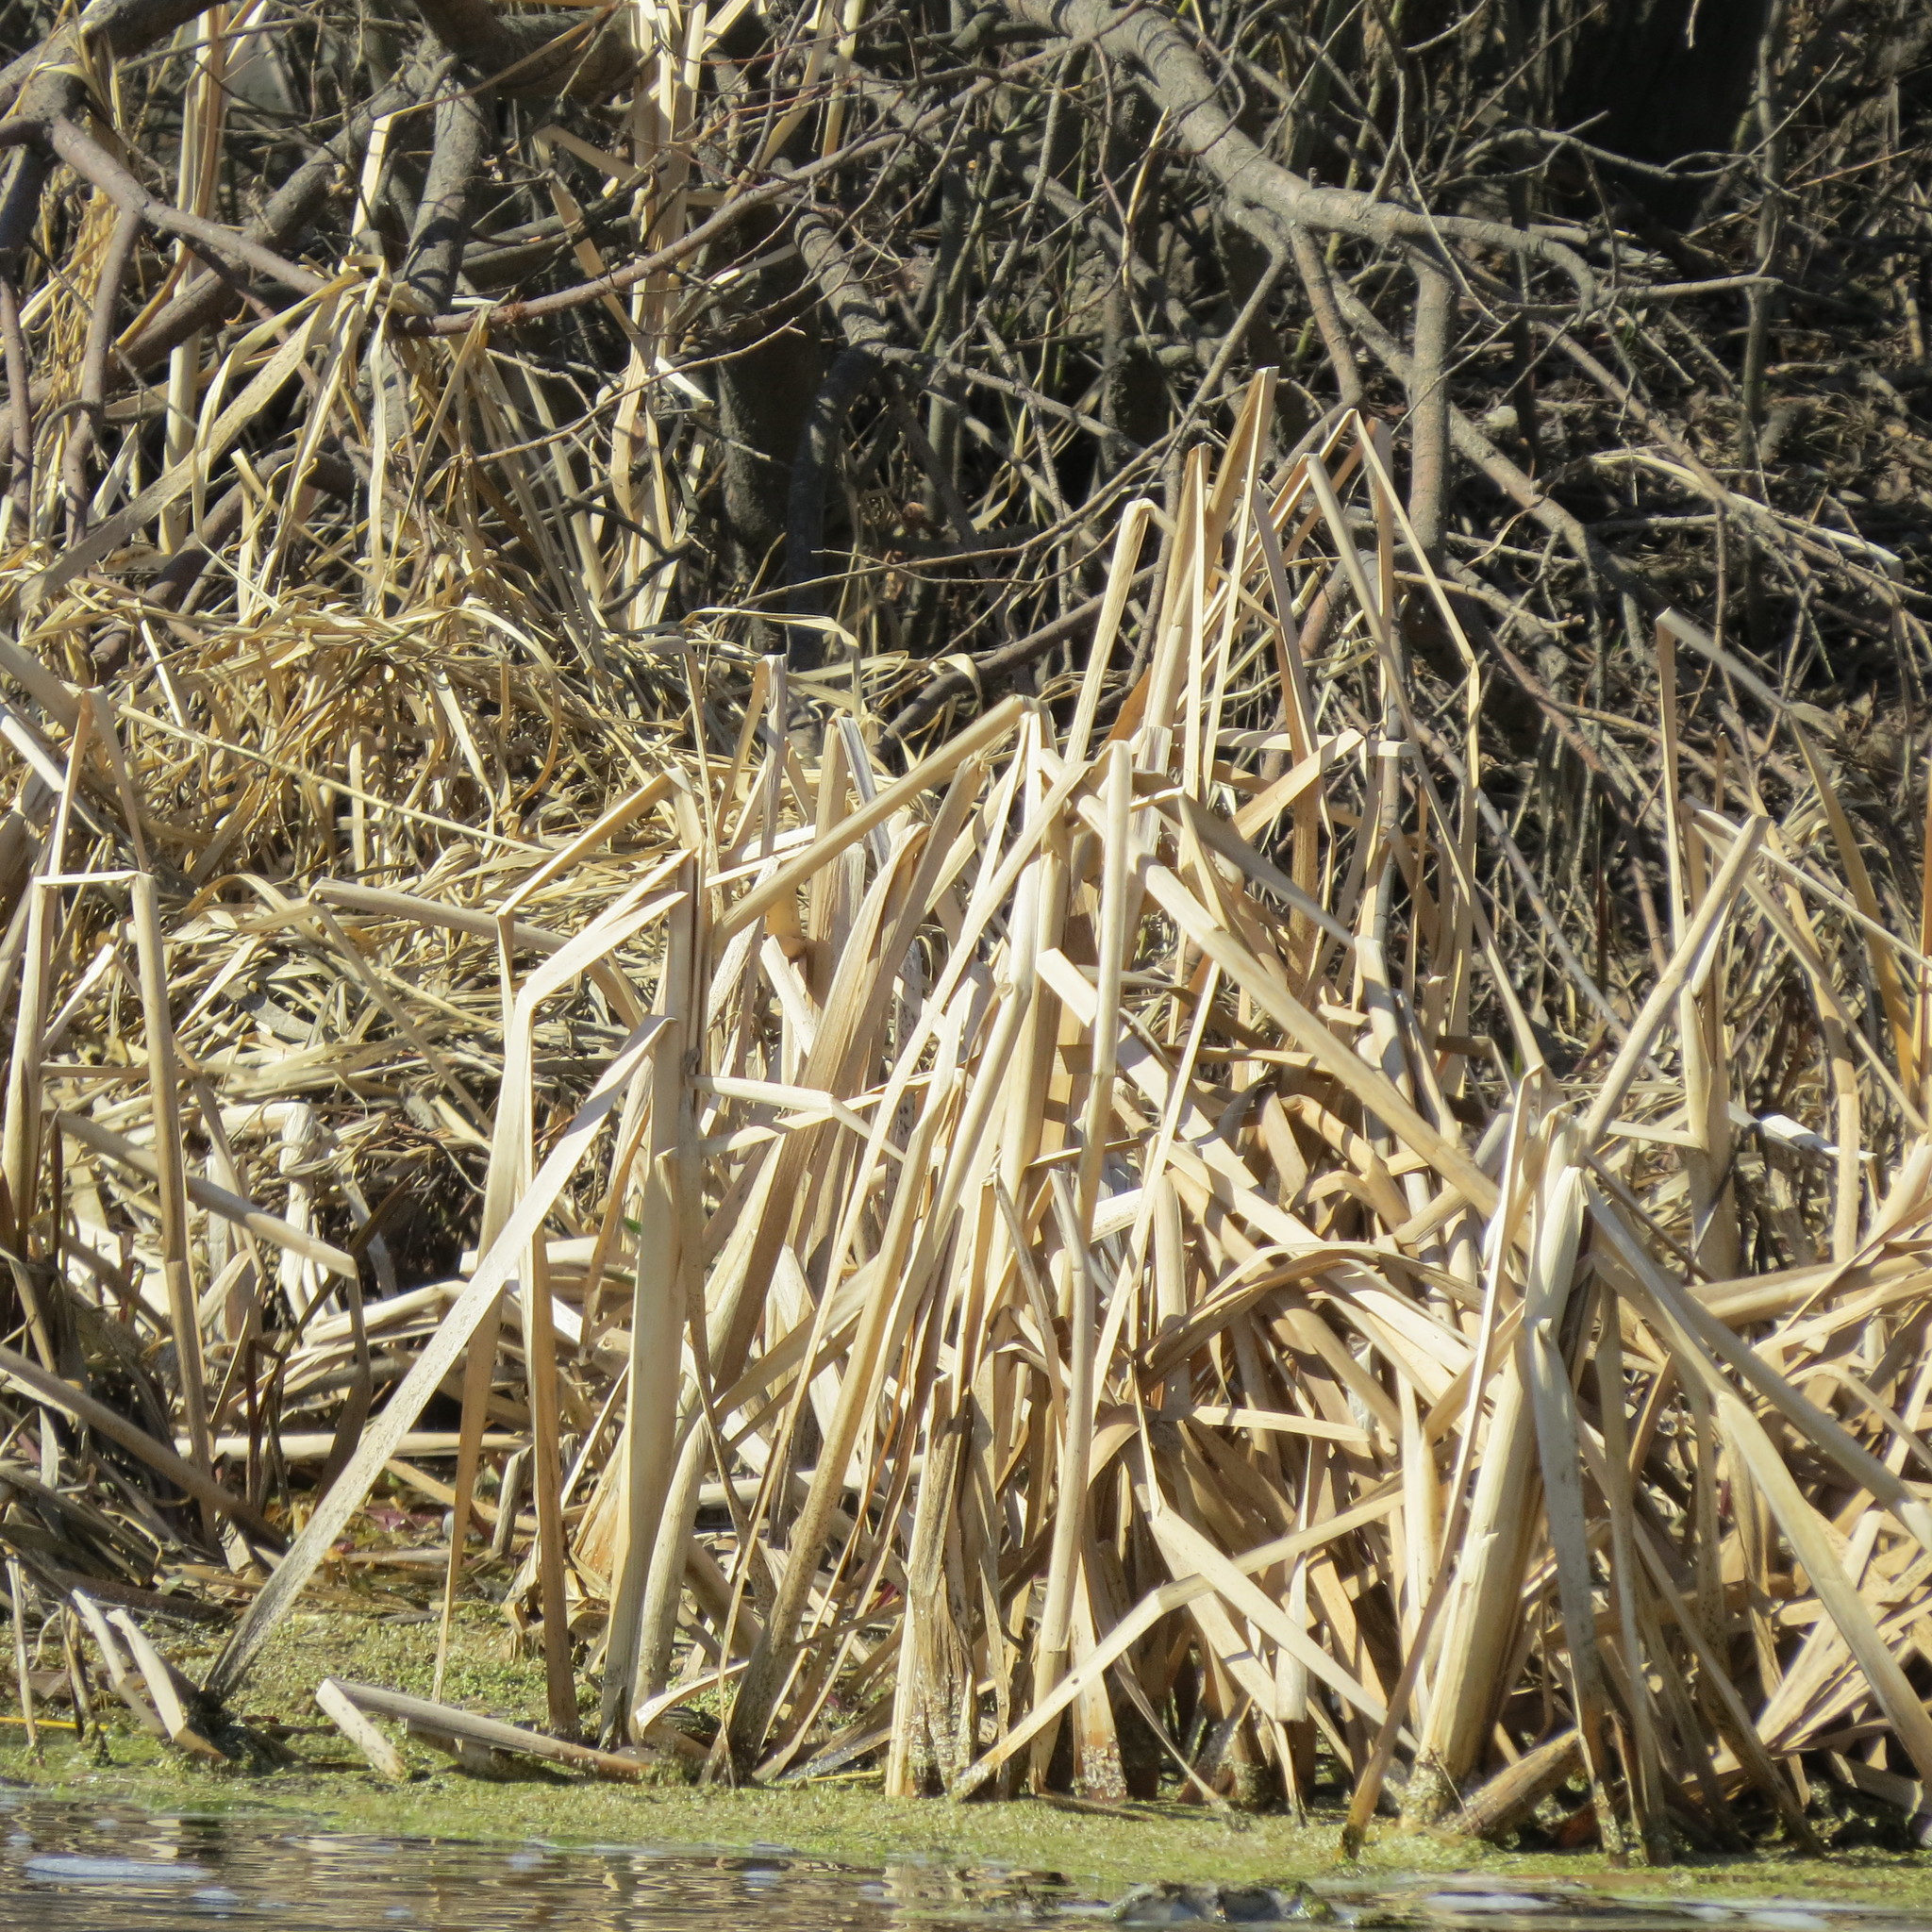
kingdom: Plantae
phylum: Tracheophyta
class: Liliopsida
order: Poales
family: Typhaceae
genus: Typha
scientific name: Typha latifolia
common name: Broadleaf cattail
